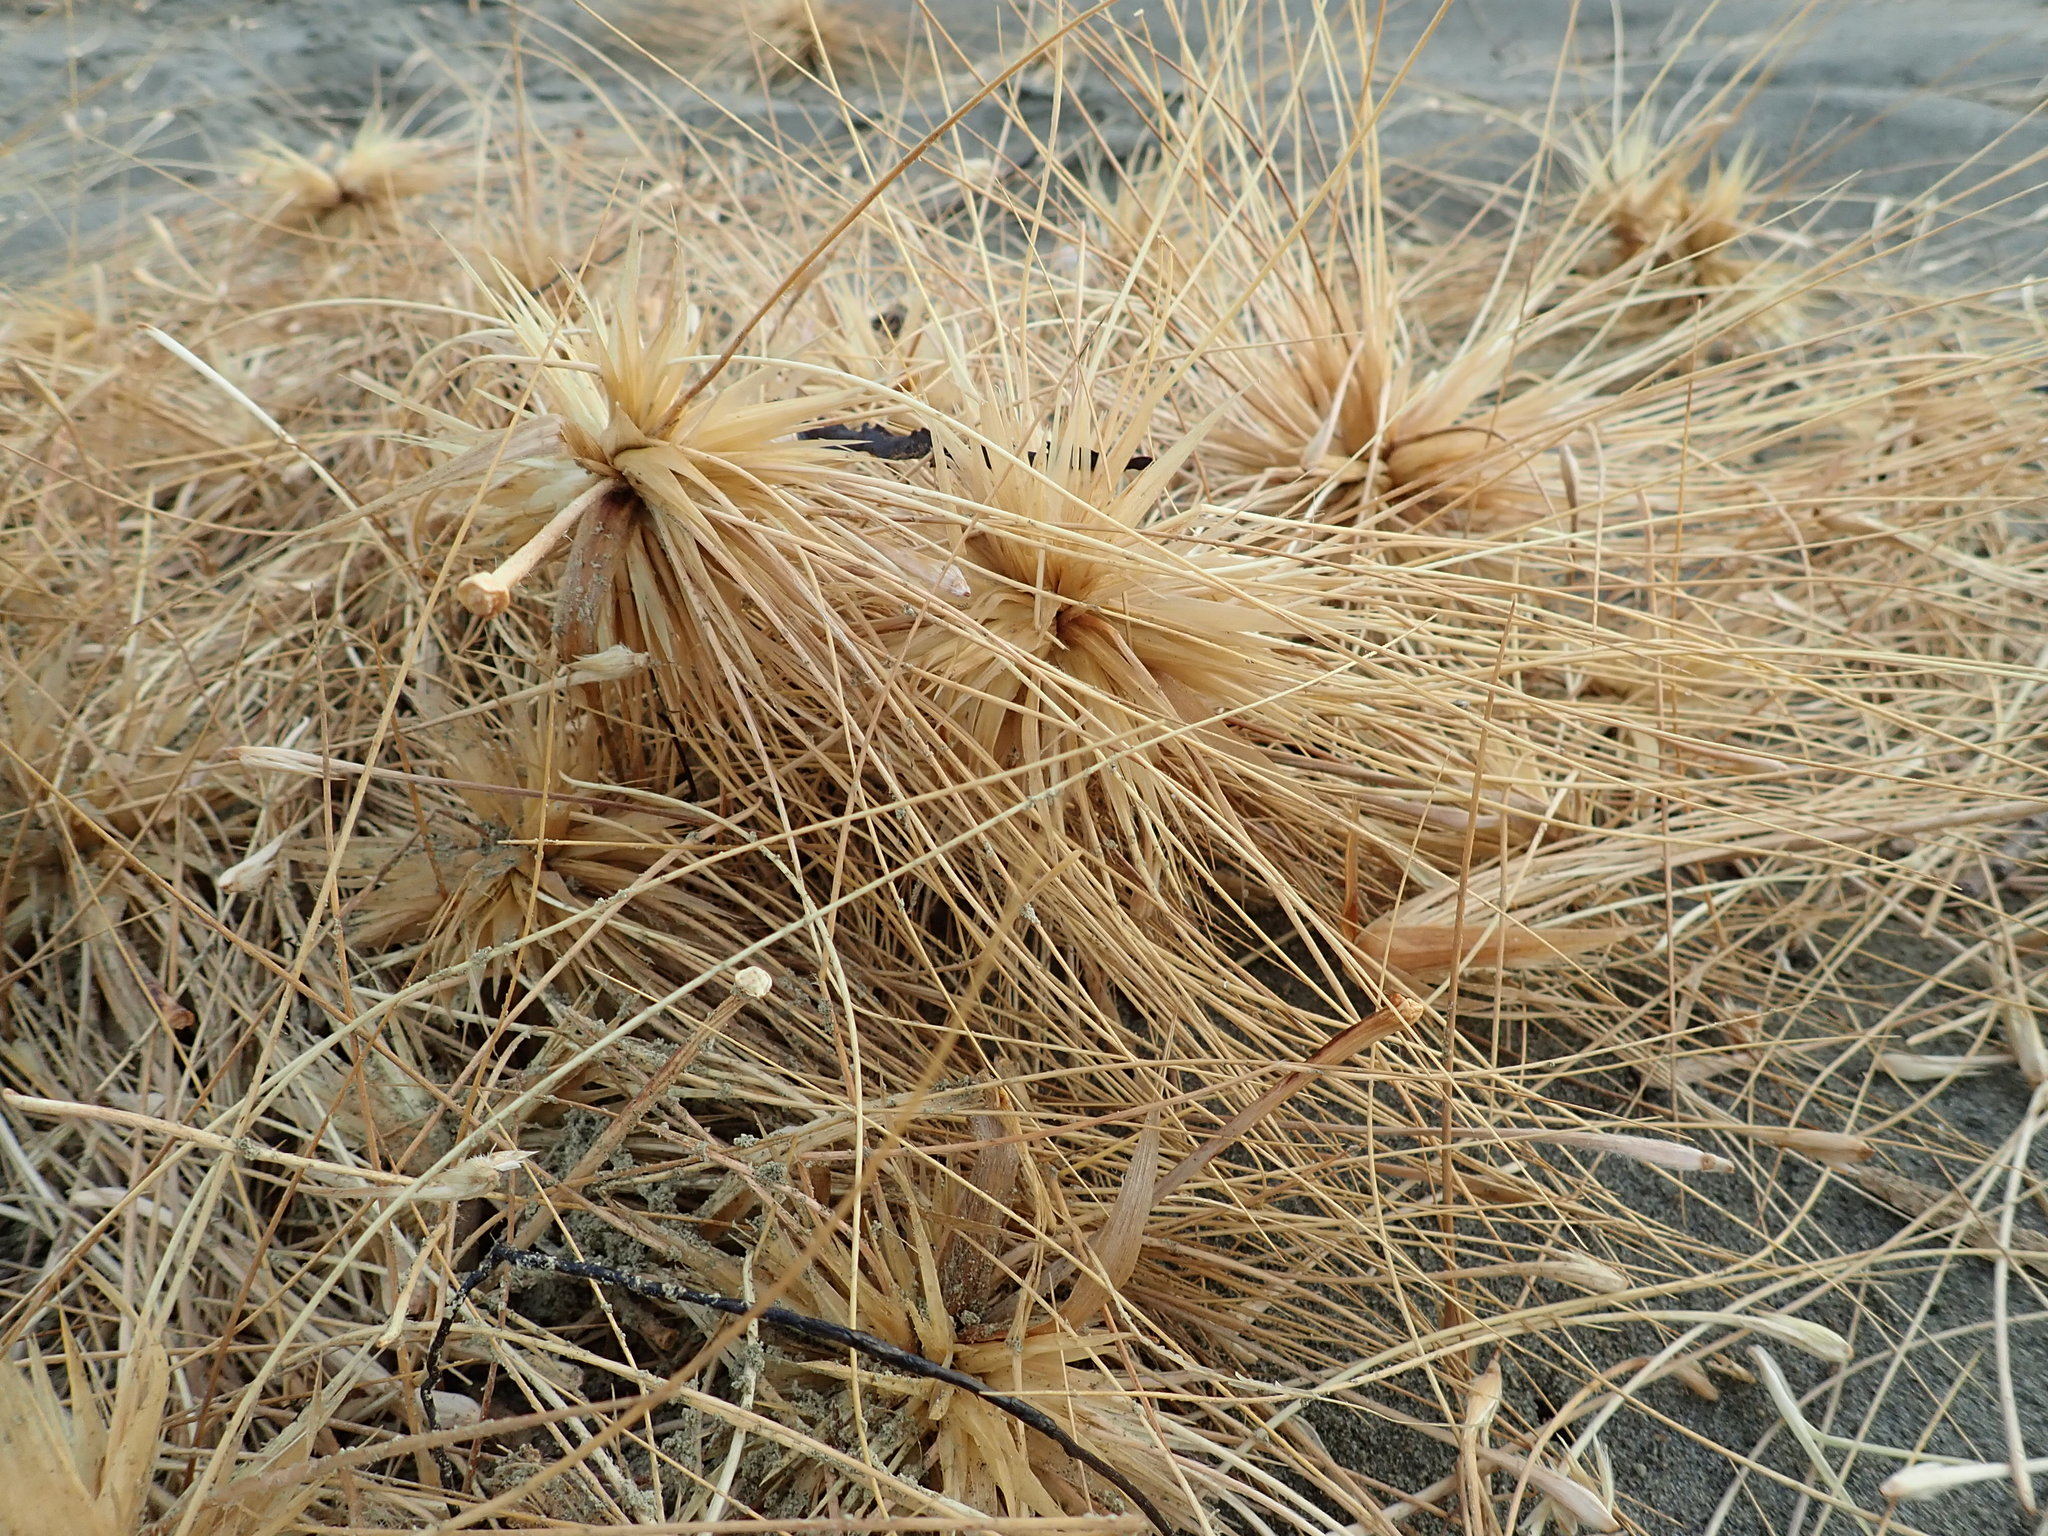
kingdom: Plantae
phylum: Tracheophyta
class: Liliopsida
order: Poales
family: Poaceae
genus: Spinifex
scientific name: Spinifex sericeus
